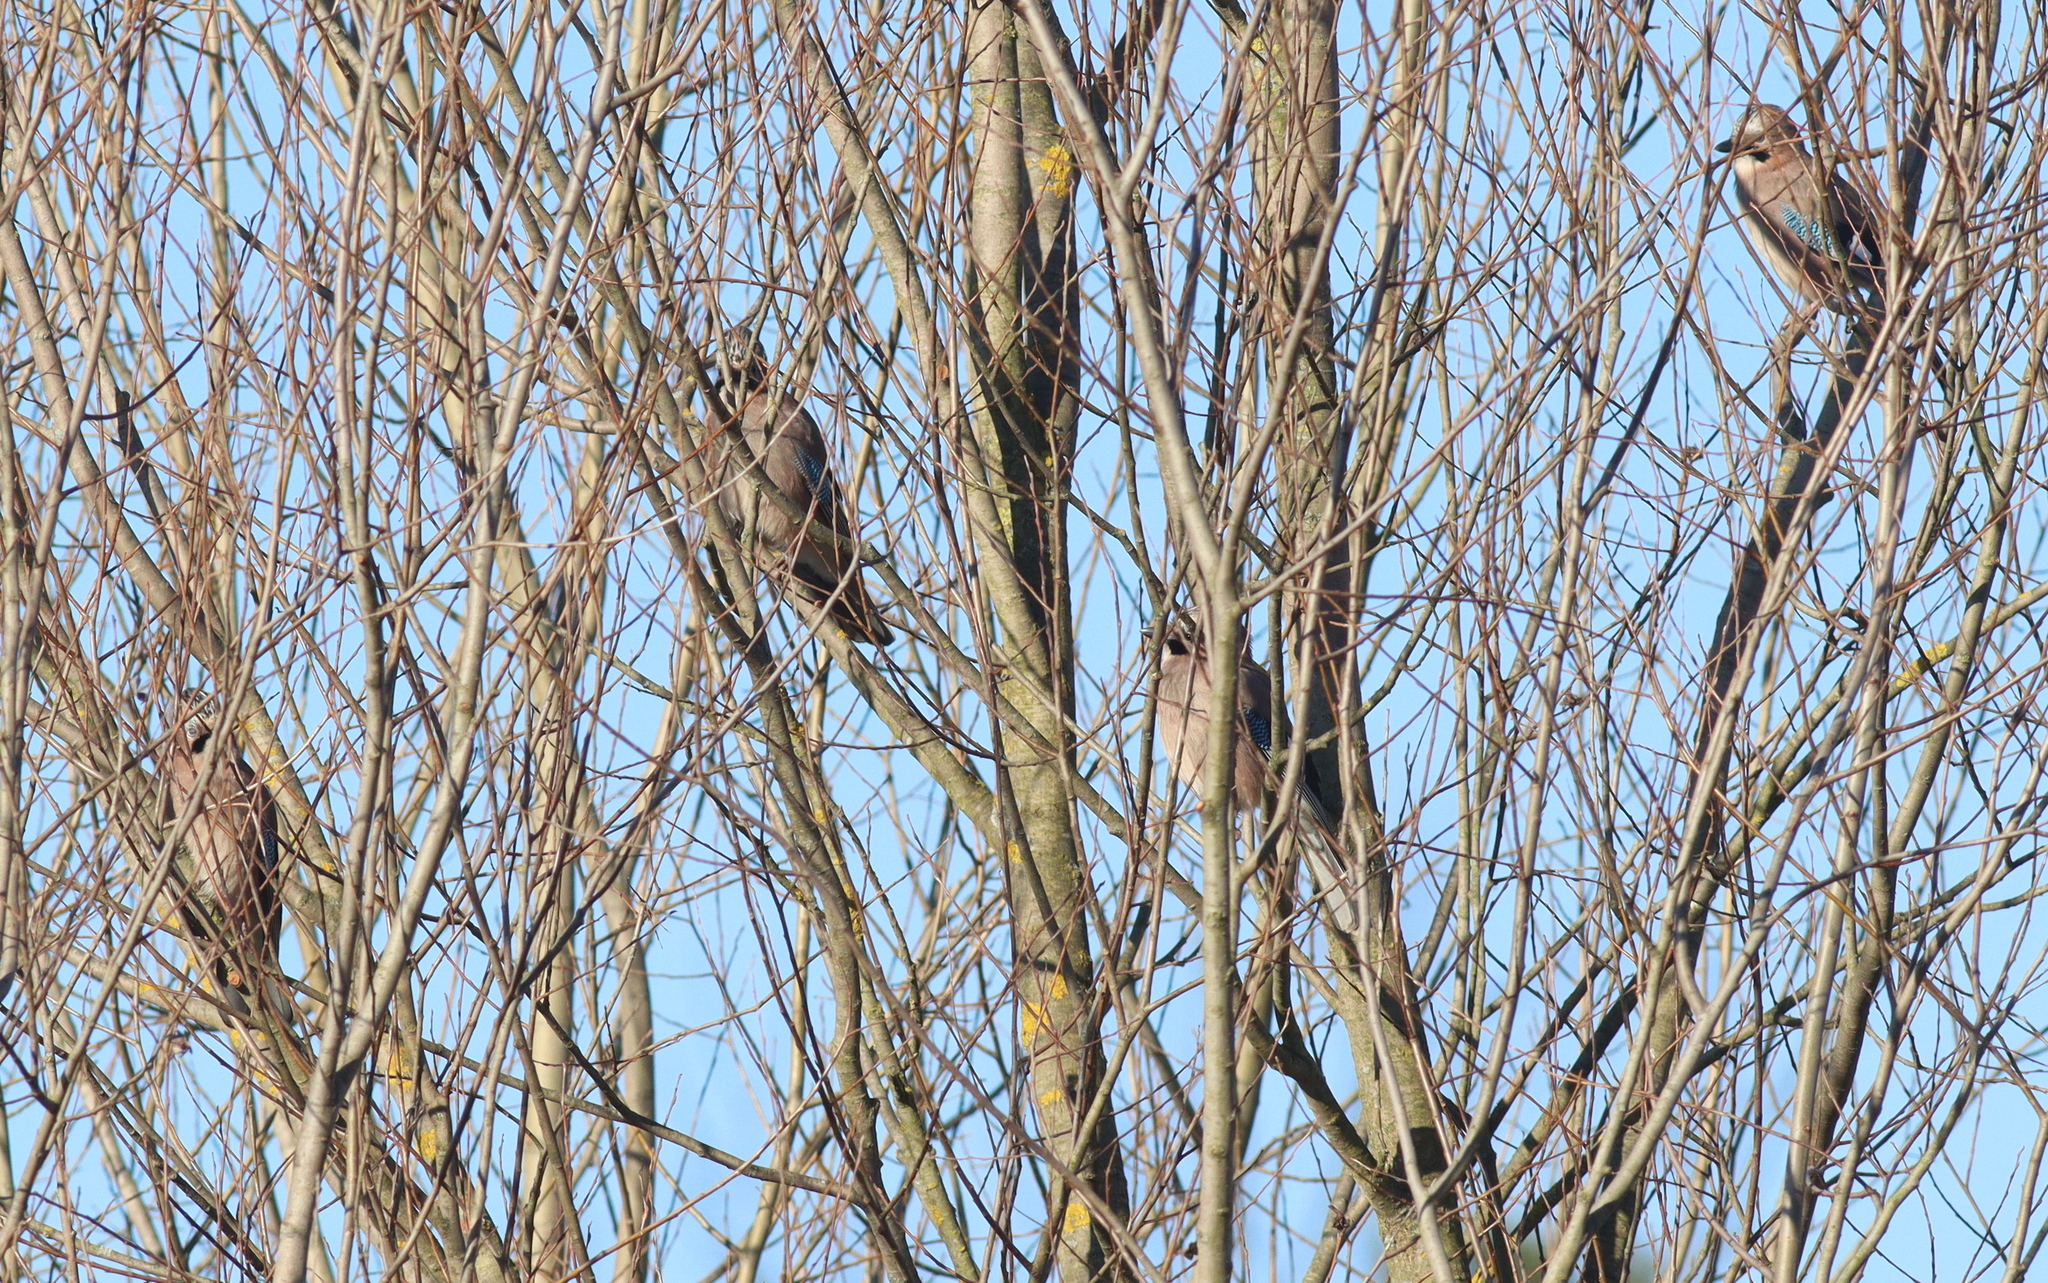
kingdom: Animalia
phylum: Chordata
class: Aves
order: Passeriformes
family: Corvidae
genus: Garrulus
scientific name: Garrulus glandarius
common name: Eurasian jay
